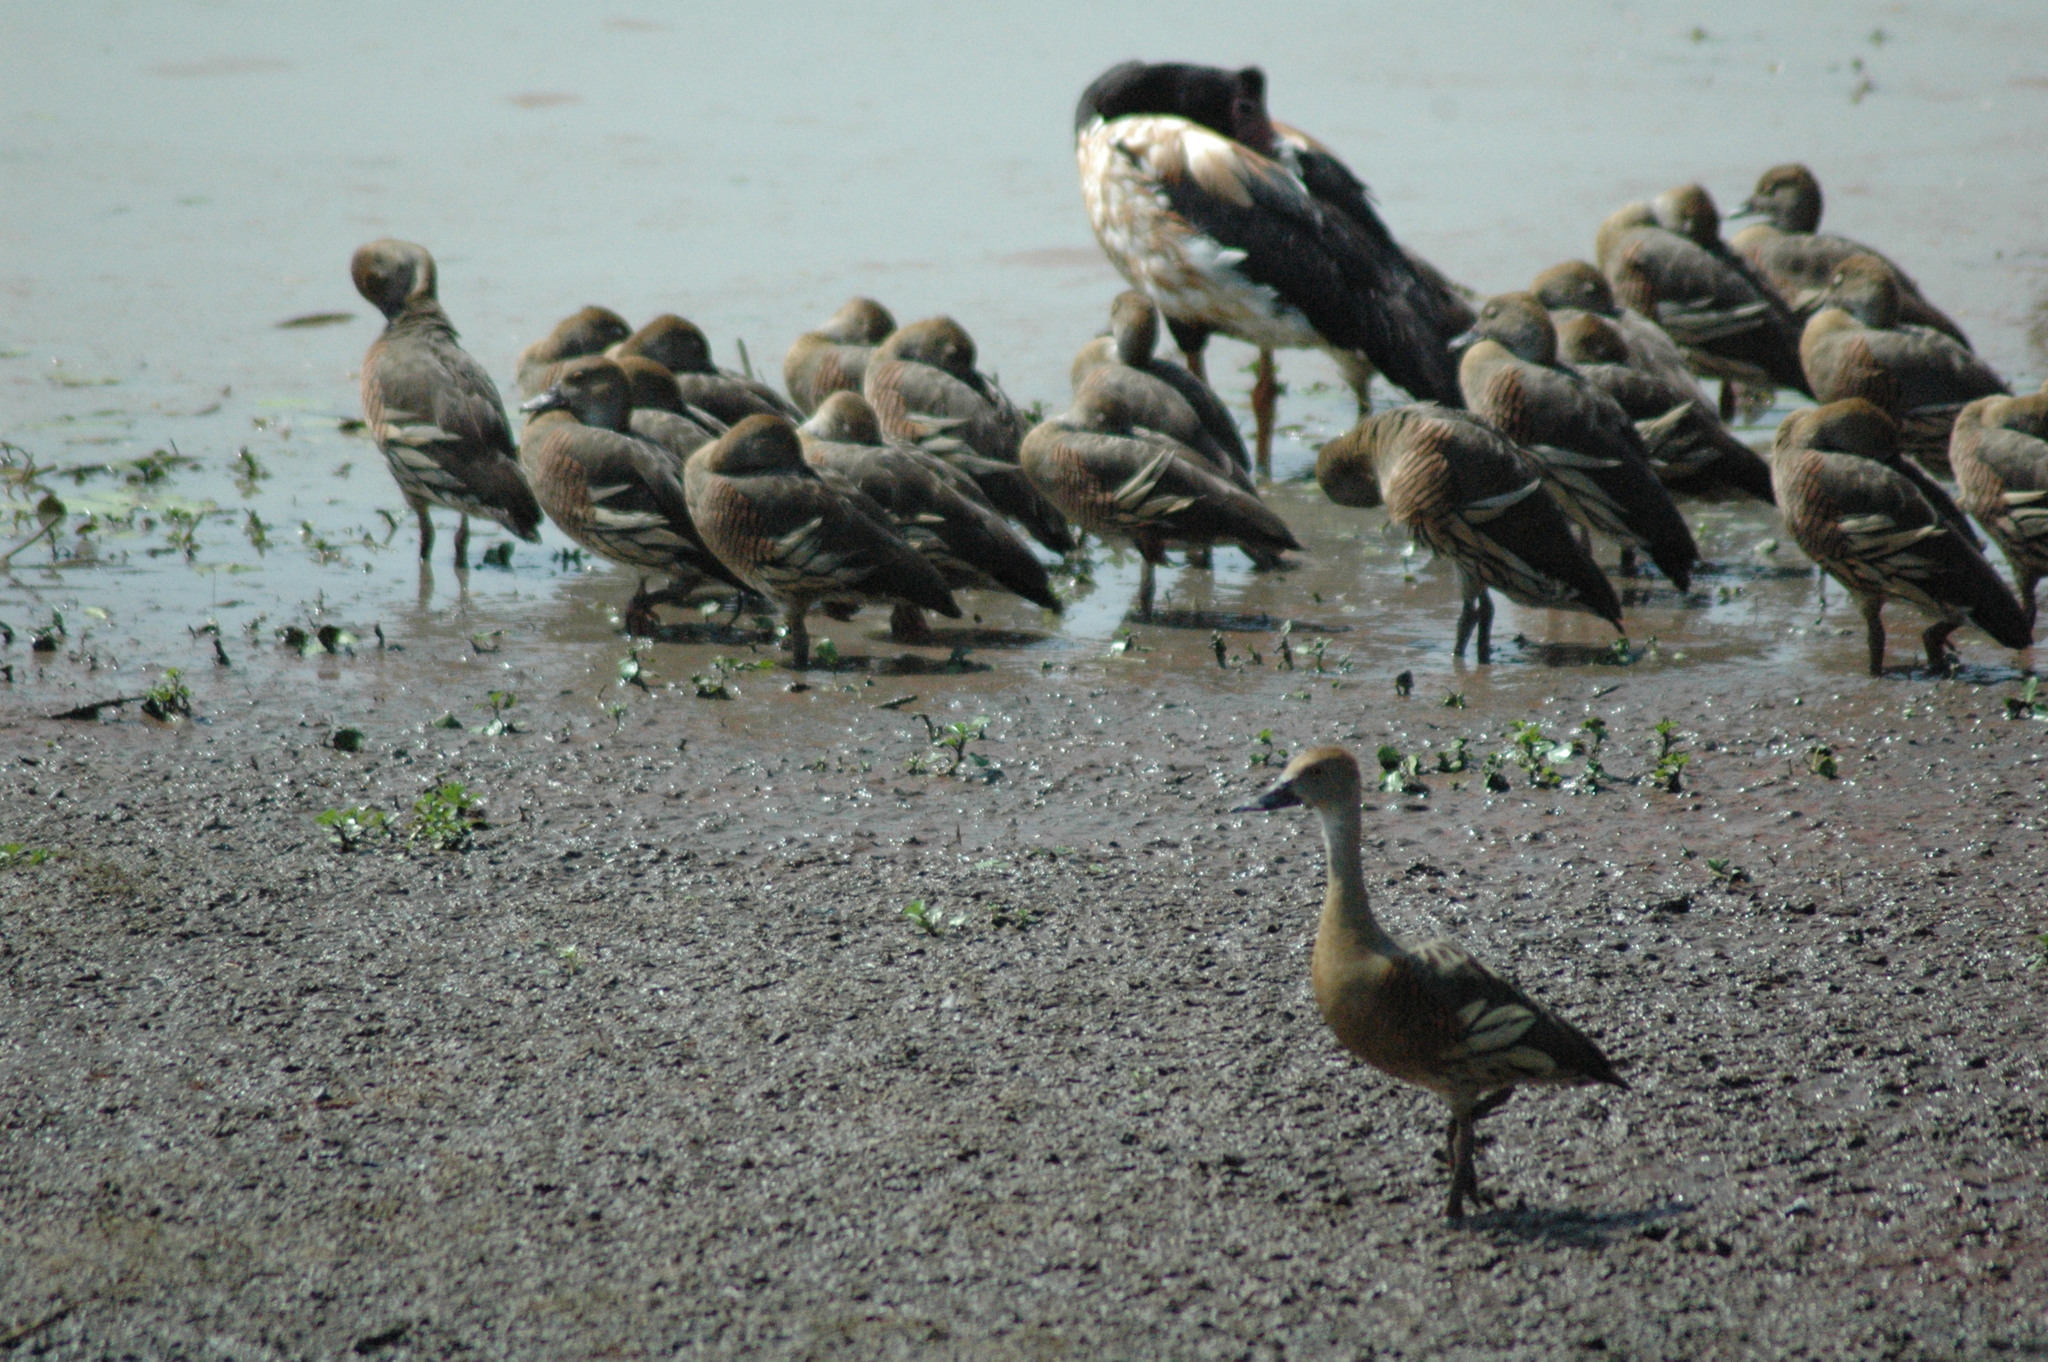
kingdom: Animalia
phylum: Chordata
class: Aves
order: Anseriformes
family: Anatidae
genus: Dendrocygna
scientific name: Dendrocygna eytoni
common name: Plumed whistling-duck
